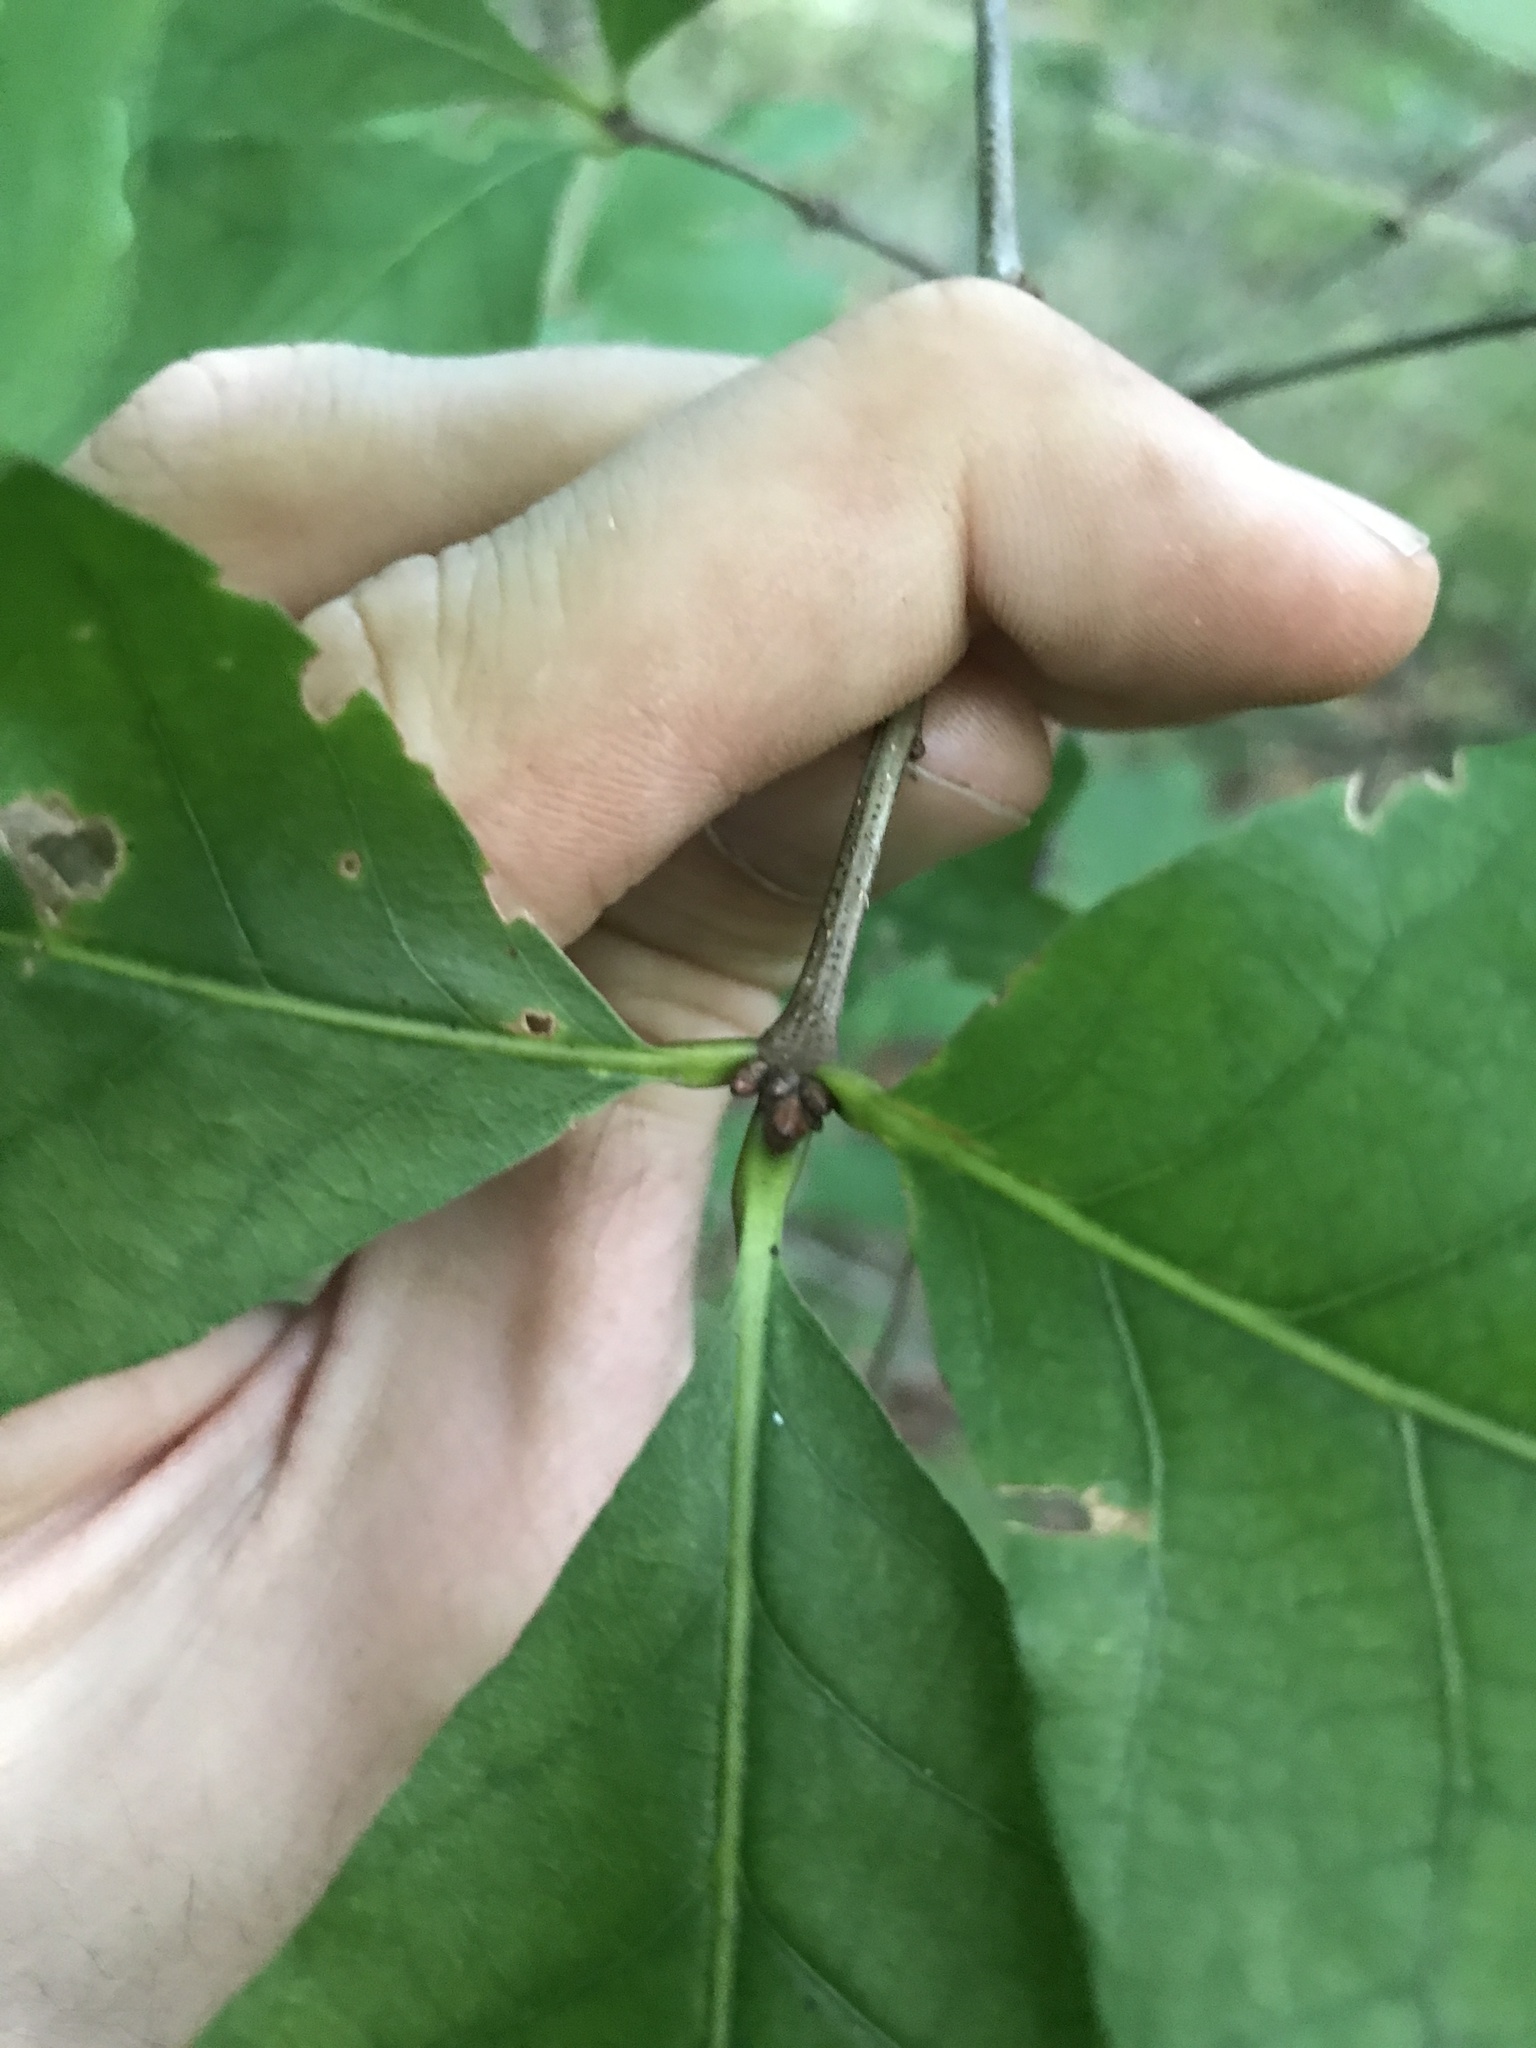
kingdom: Plantae
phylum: Tracheophyta
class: Magnoliopsida
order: Fagales
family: Fagaceae
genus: Quercus
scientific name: Quercus alba
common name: White oak
